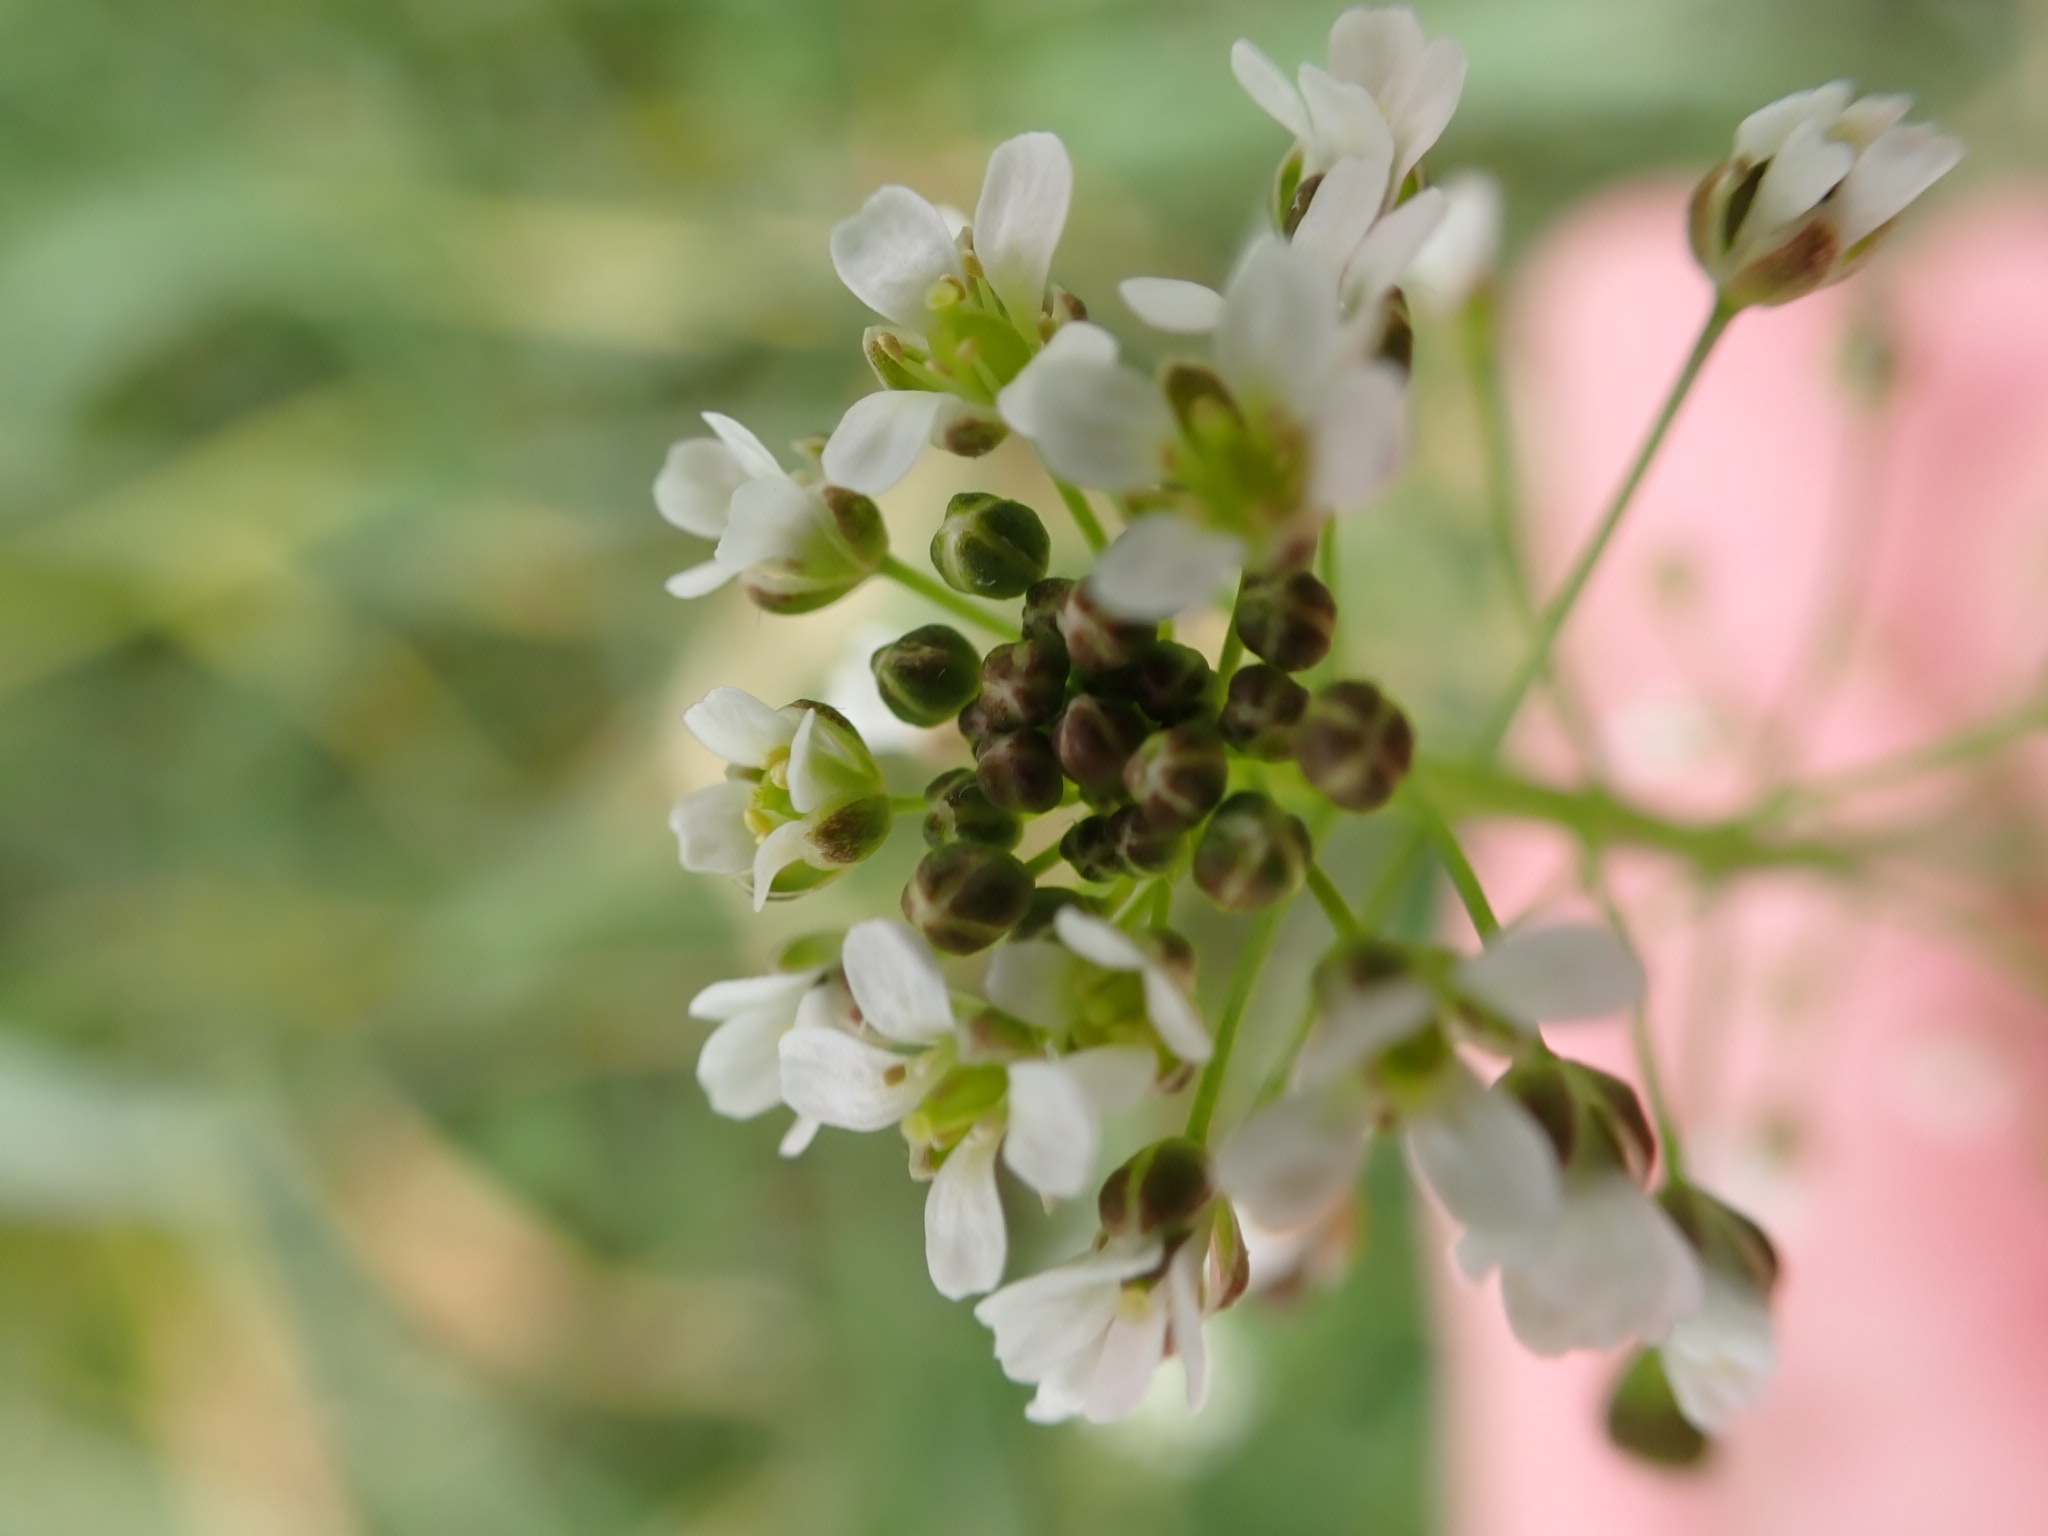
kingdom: Plantae
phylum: Tracheophyta
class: Magnoliopsida
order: Brassicales
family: Brassicaceae
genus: Capsella
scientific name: Capsella bursa-pastoris
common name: Shepherd's purse
